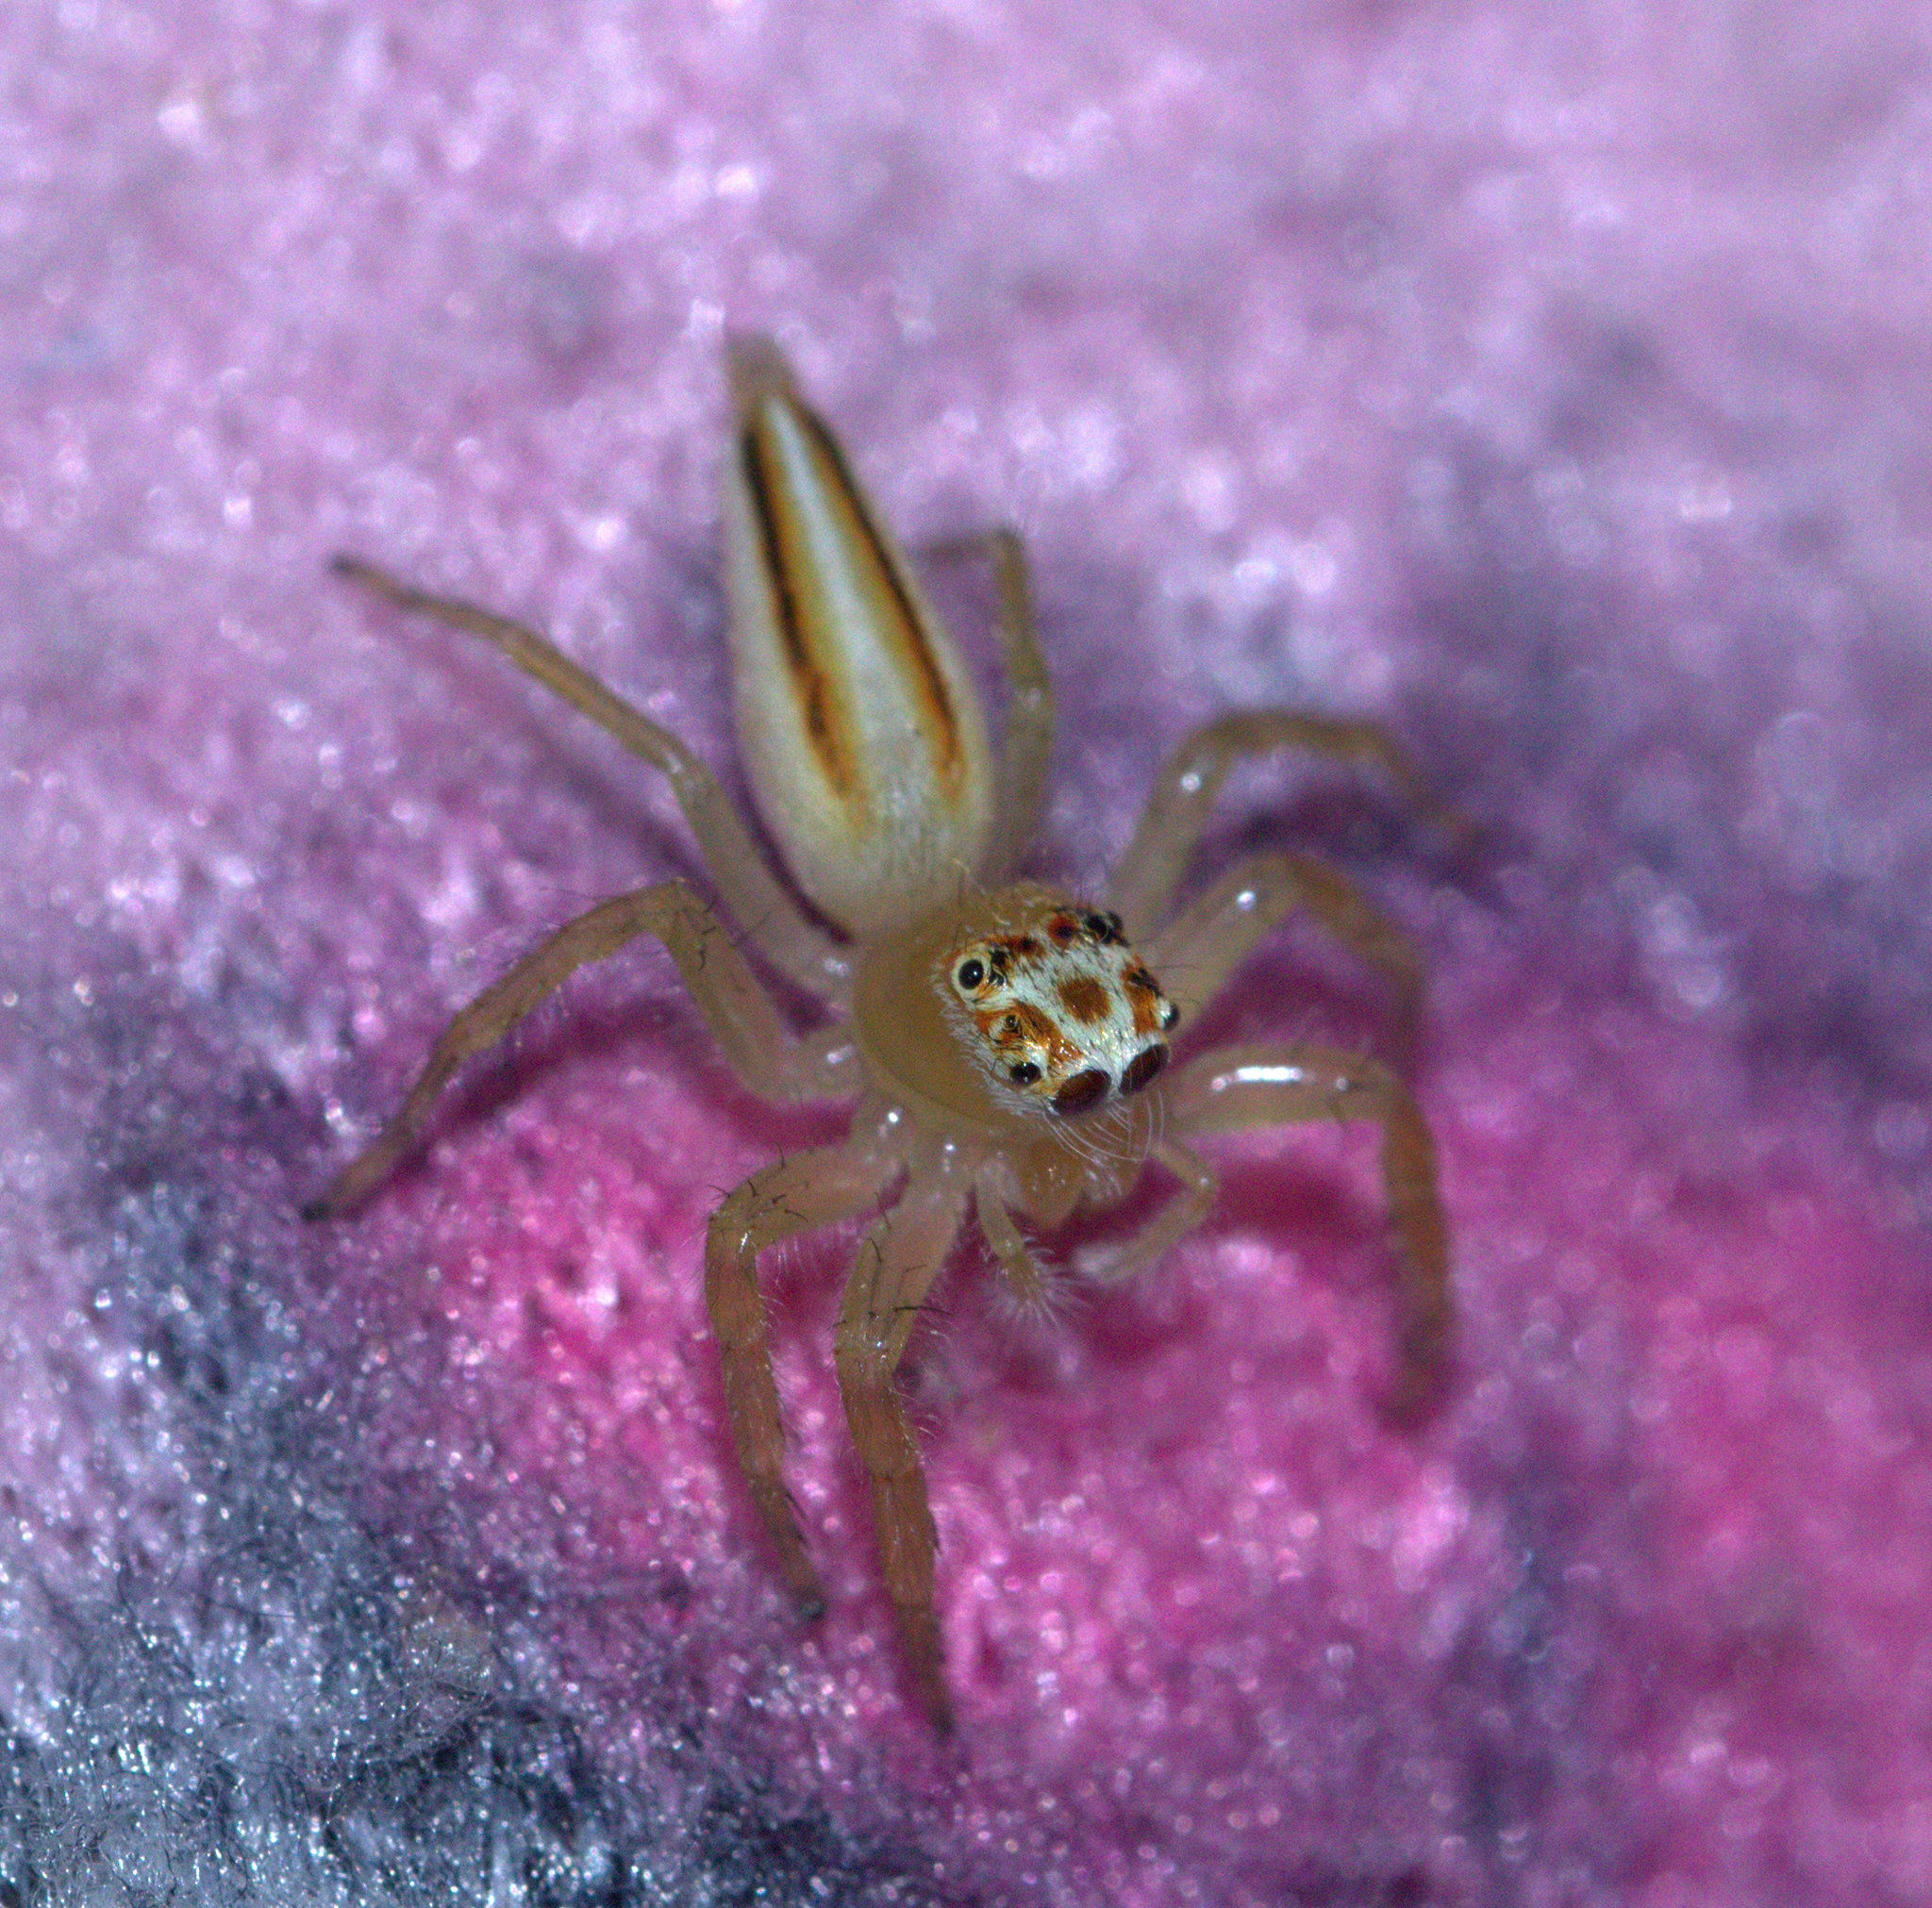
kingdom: Animalia
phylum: Arthropoda
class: Arachnida
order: Araneae
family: Salticidae
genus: Telamonia
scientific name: Telamonia dimidiata
